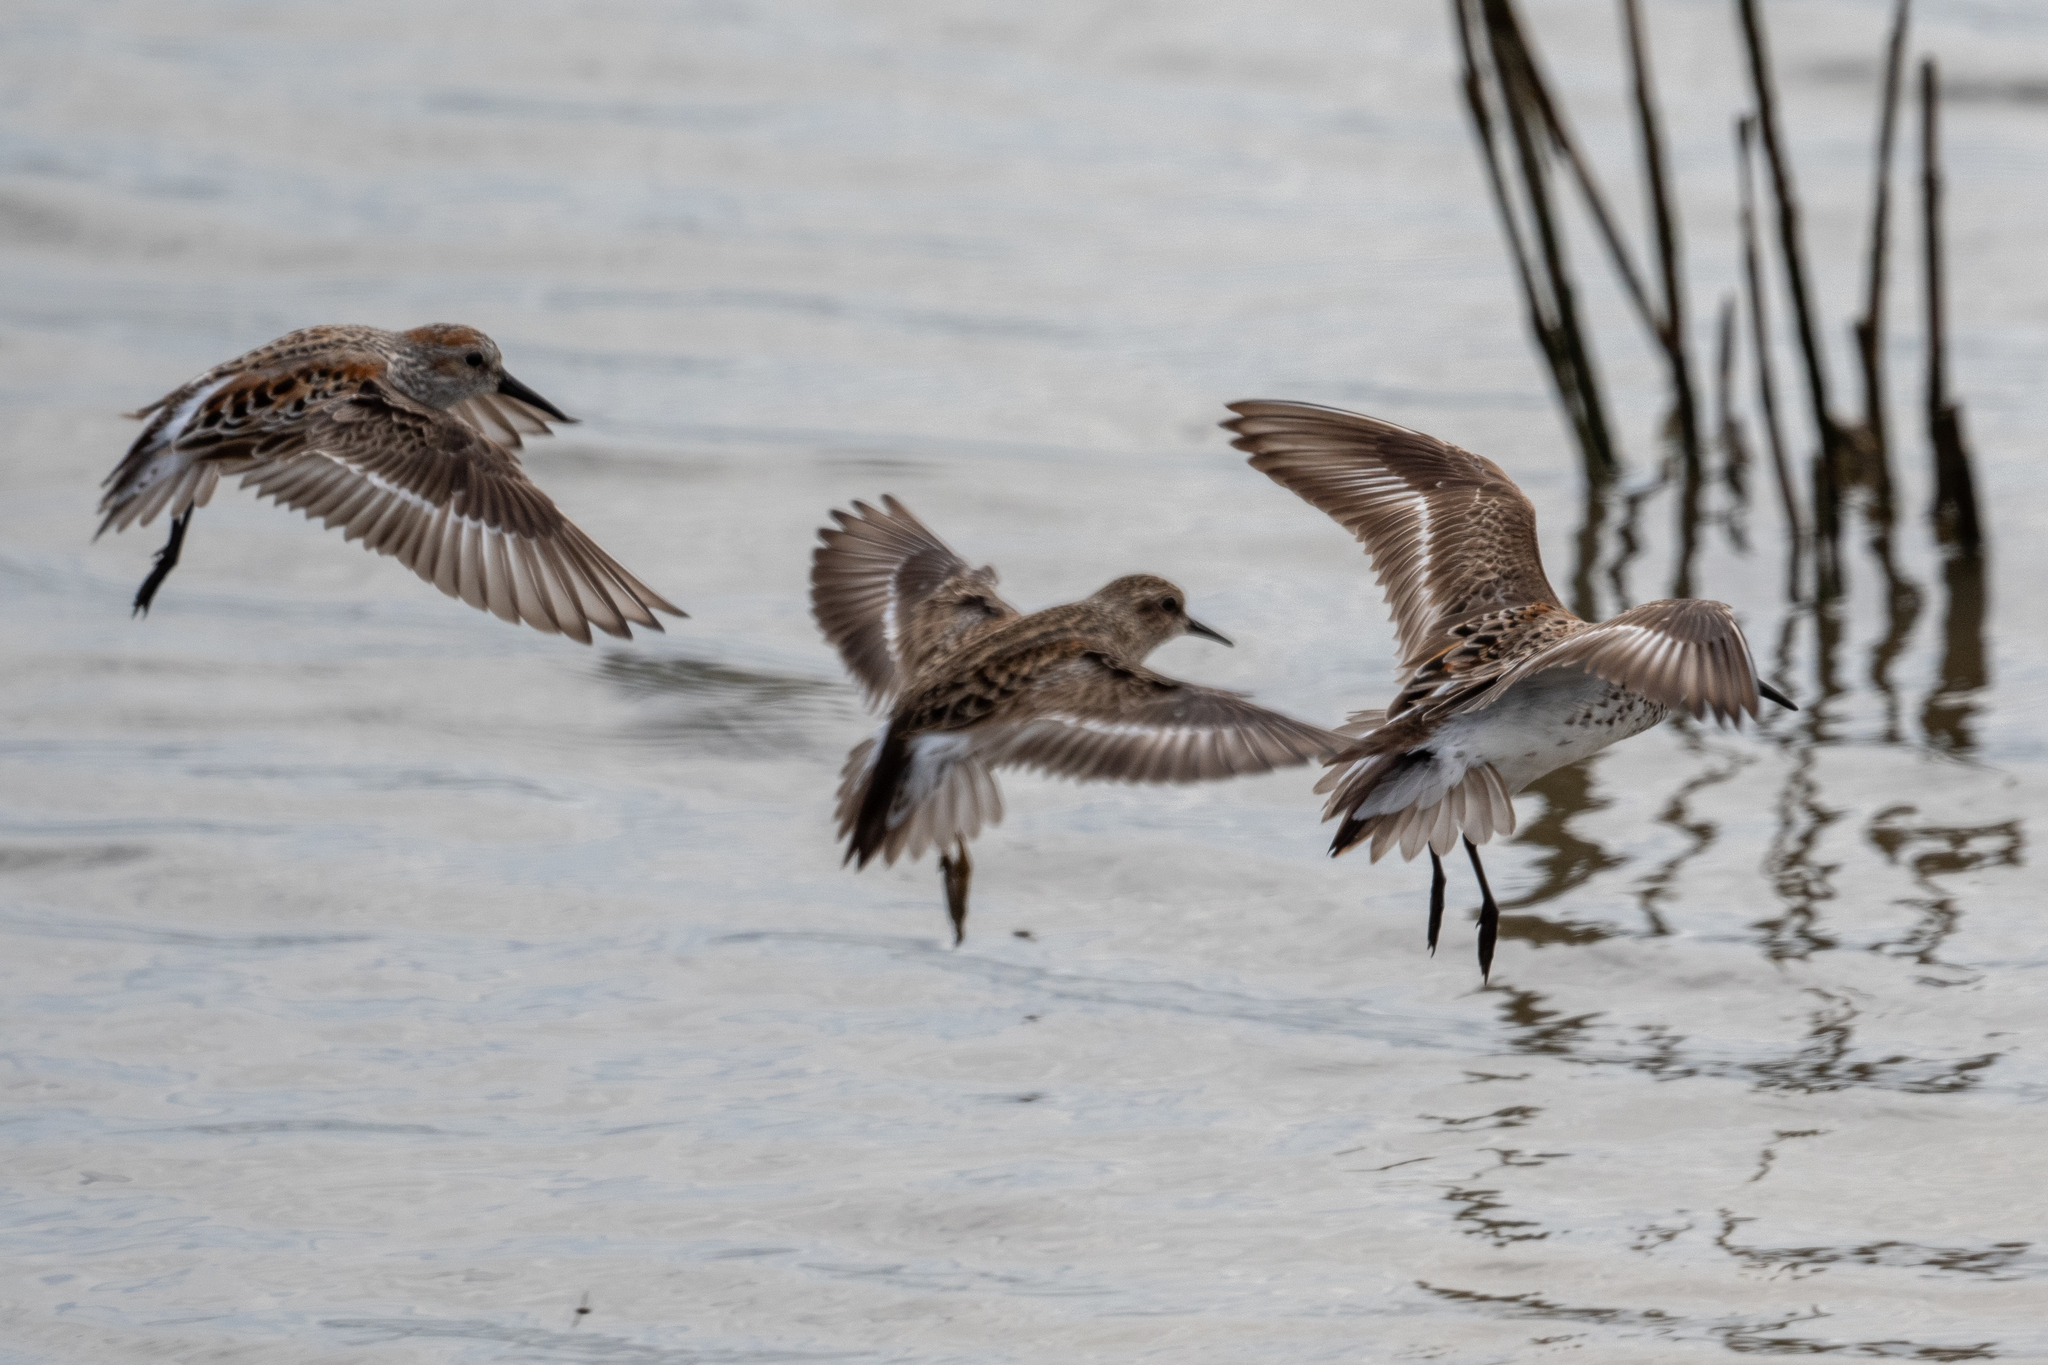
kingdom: Animalia
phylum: Chordata
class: Aves
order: Charadriiformes
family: Scolopacidae
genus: Calidris
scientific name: Calidris mauri
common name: Western sandpiper
